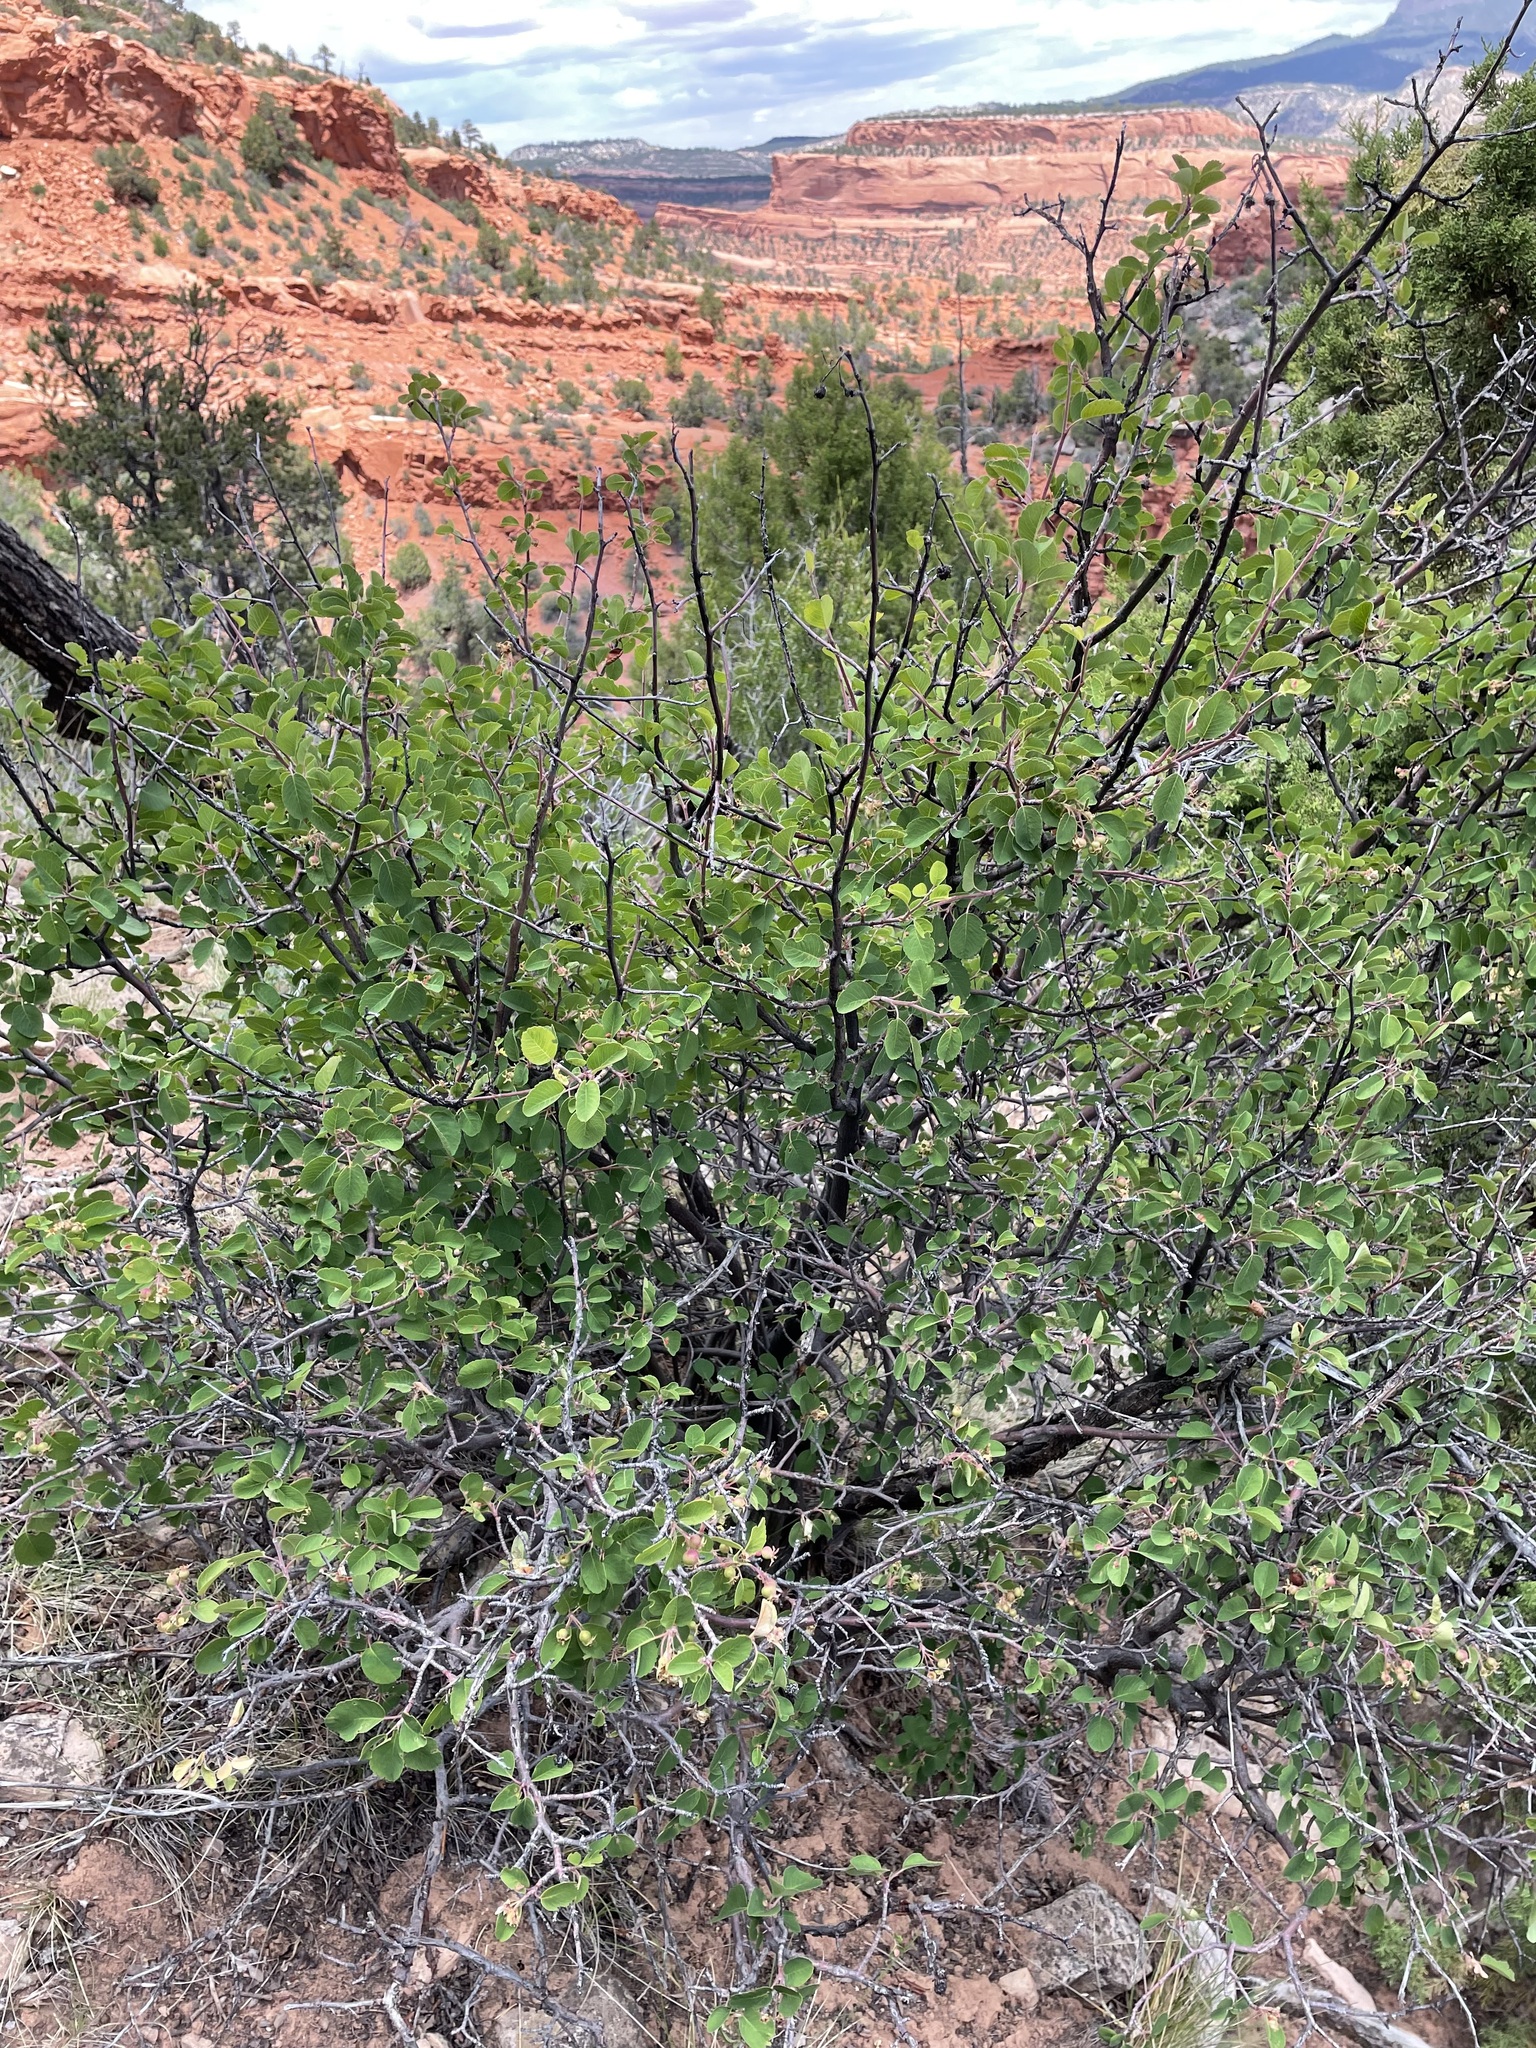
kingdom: Plantae
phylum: Tracheophyta
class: Magnoliopsida
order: Rosales
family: Rosaceae
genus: Amelanchier
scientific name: Amelanchier utahensis
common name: Utah serviceberry
